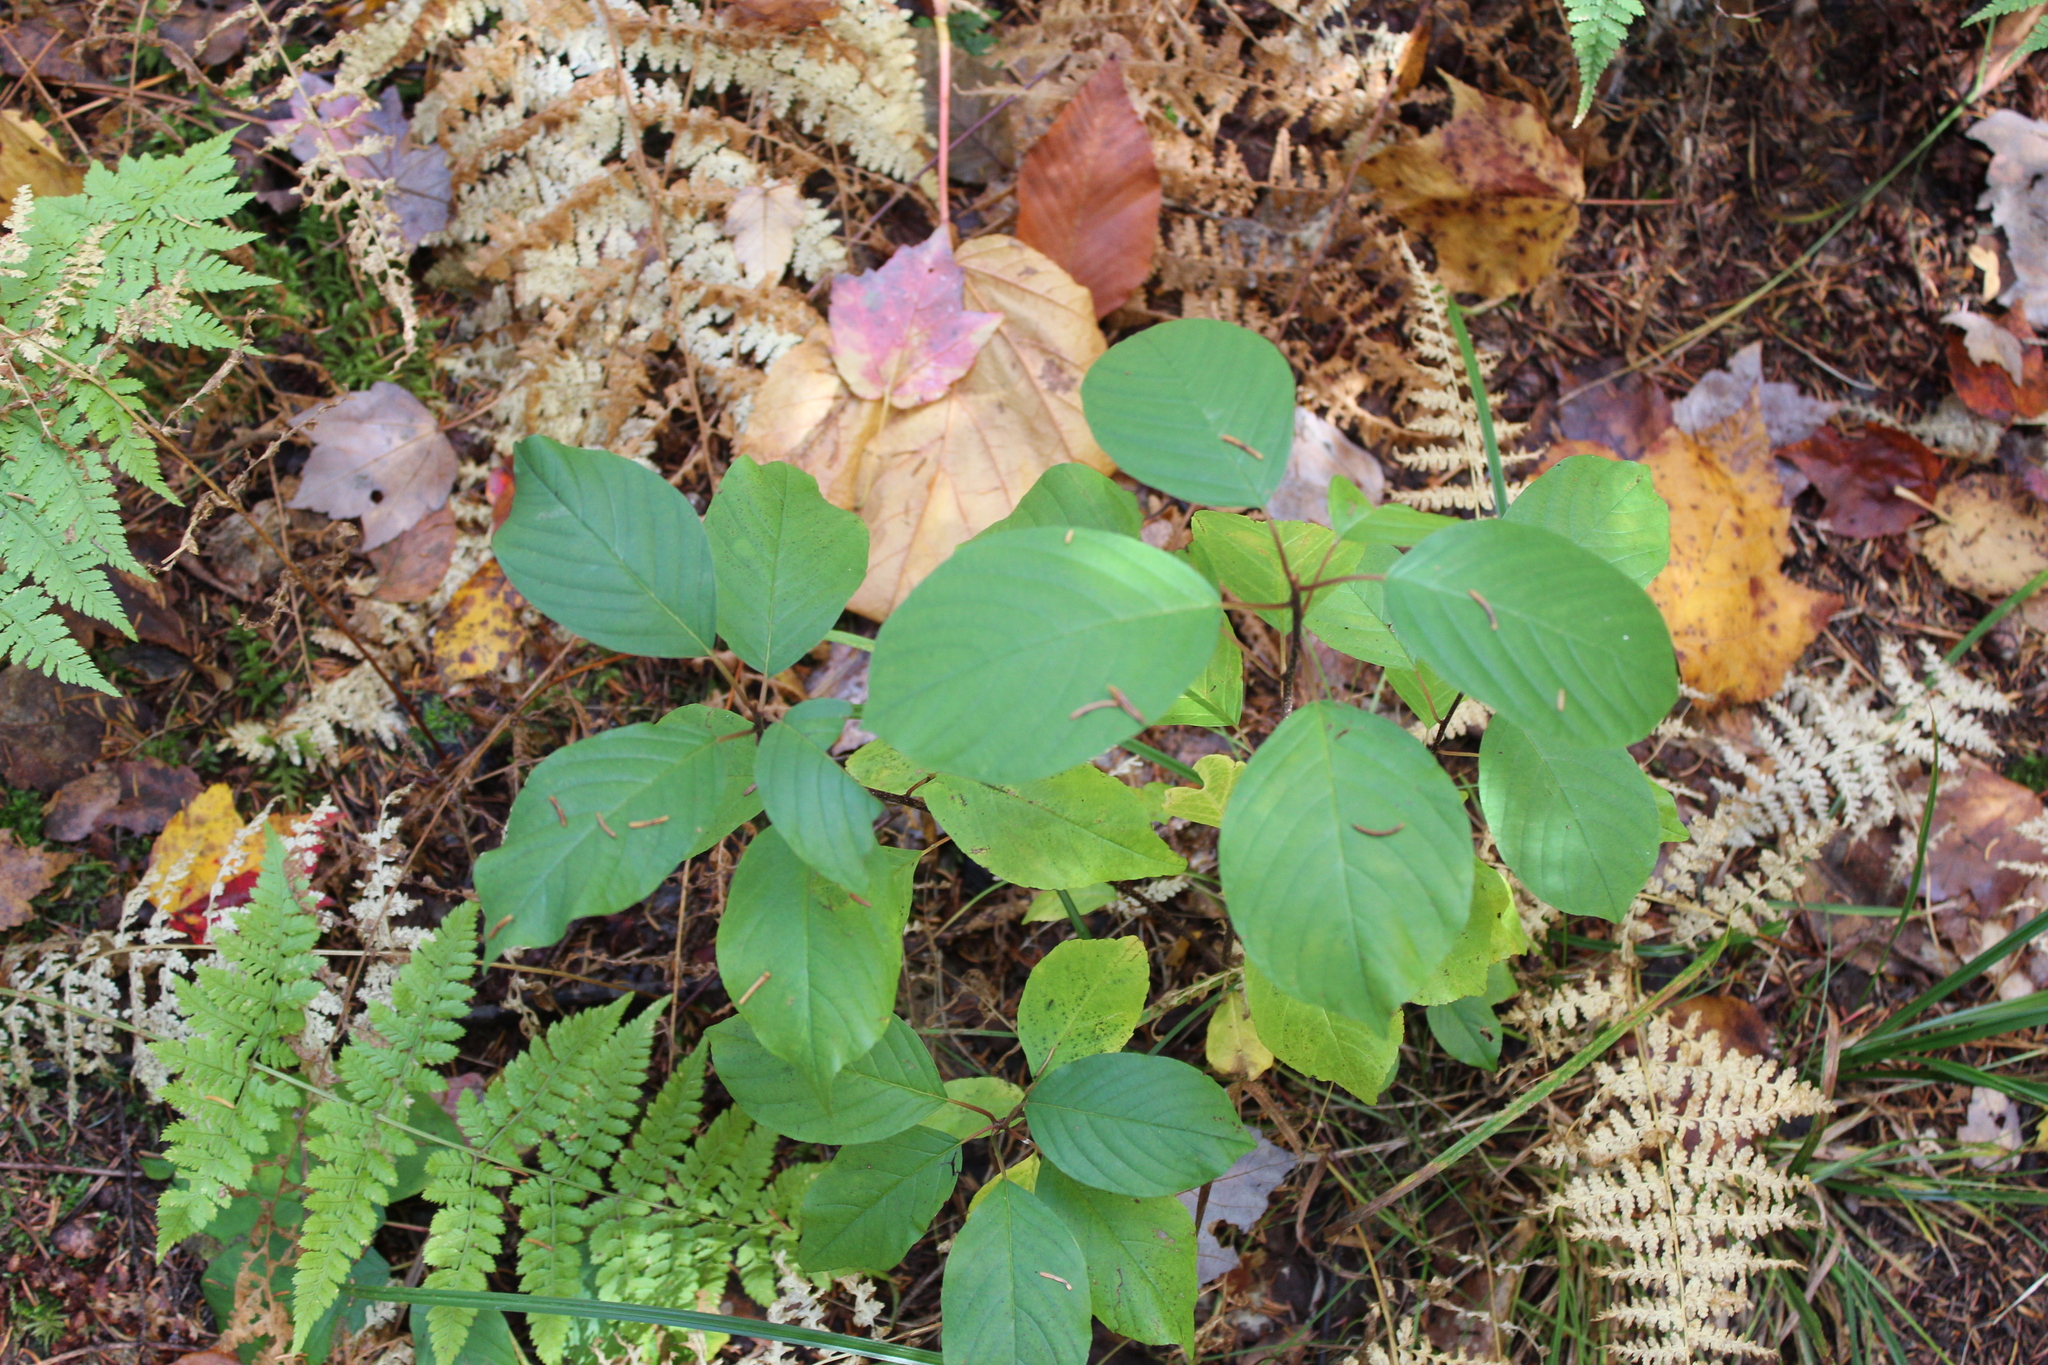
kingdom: Plantae
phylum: Tracheophyta
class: Magnoliopsida
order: Rosales
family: Rhamnaceae
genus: Frangula
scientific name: Frangula alnus
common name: Alder buckthorn
